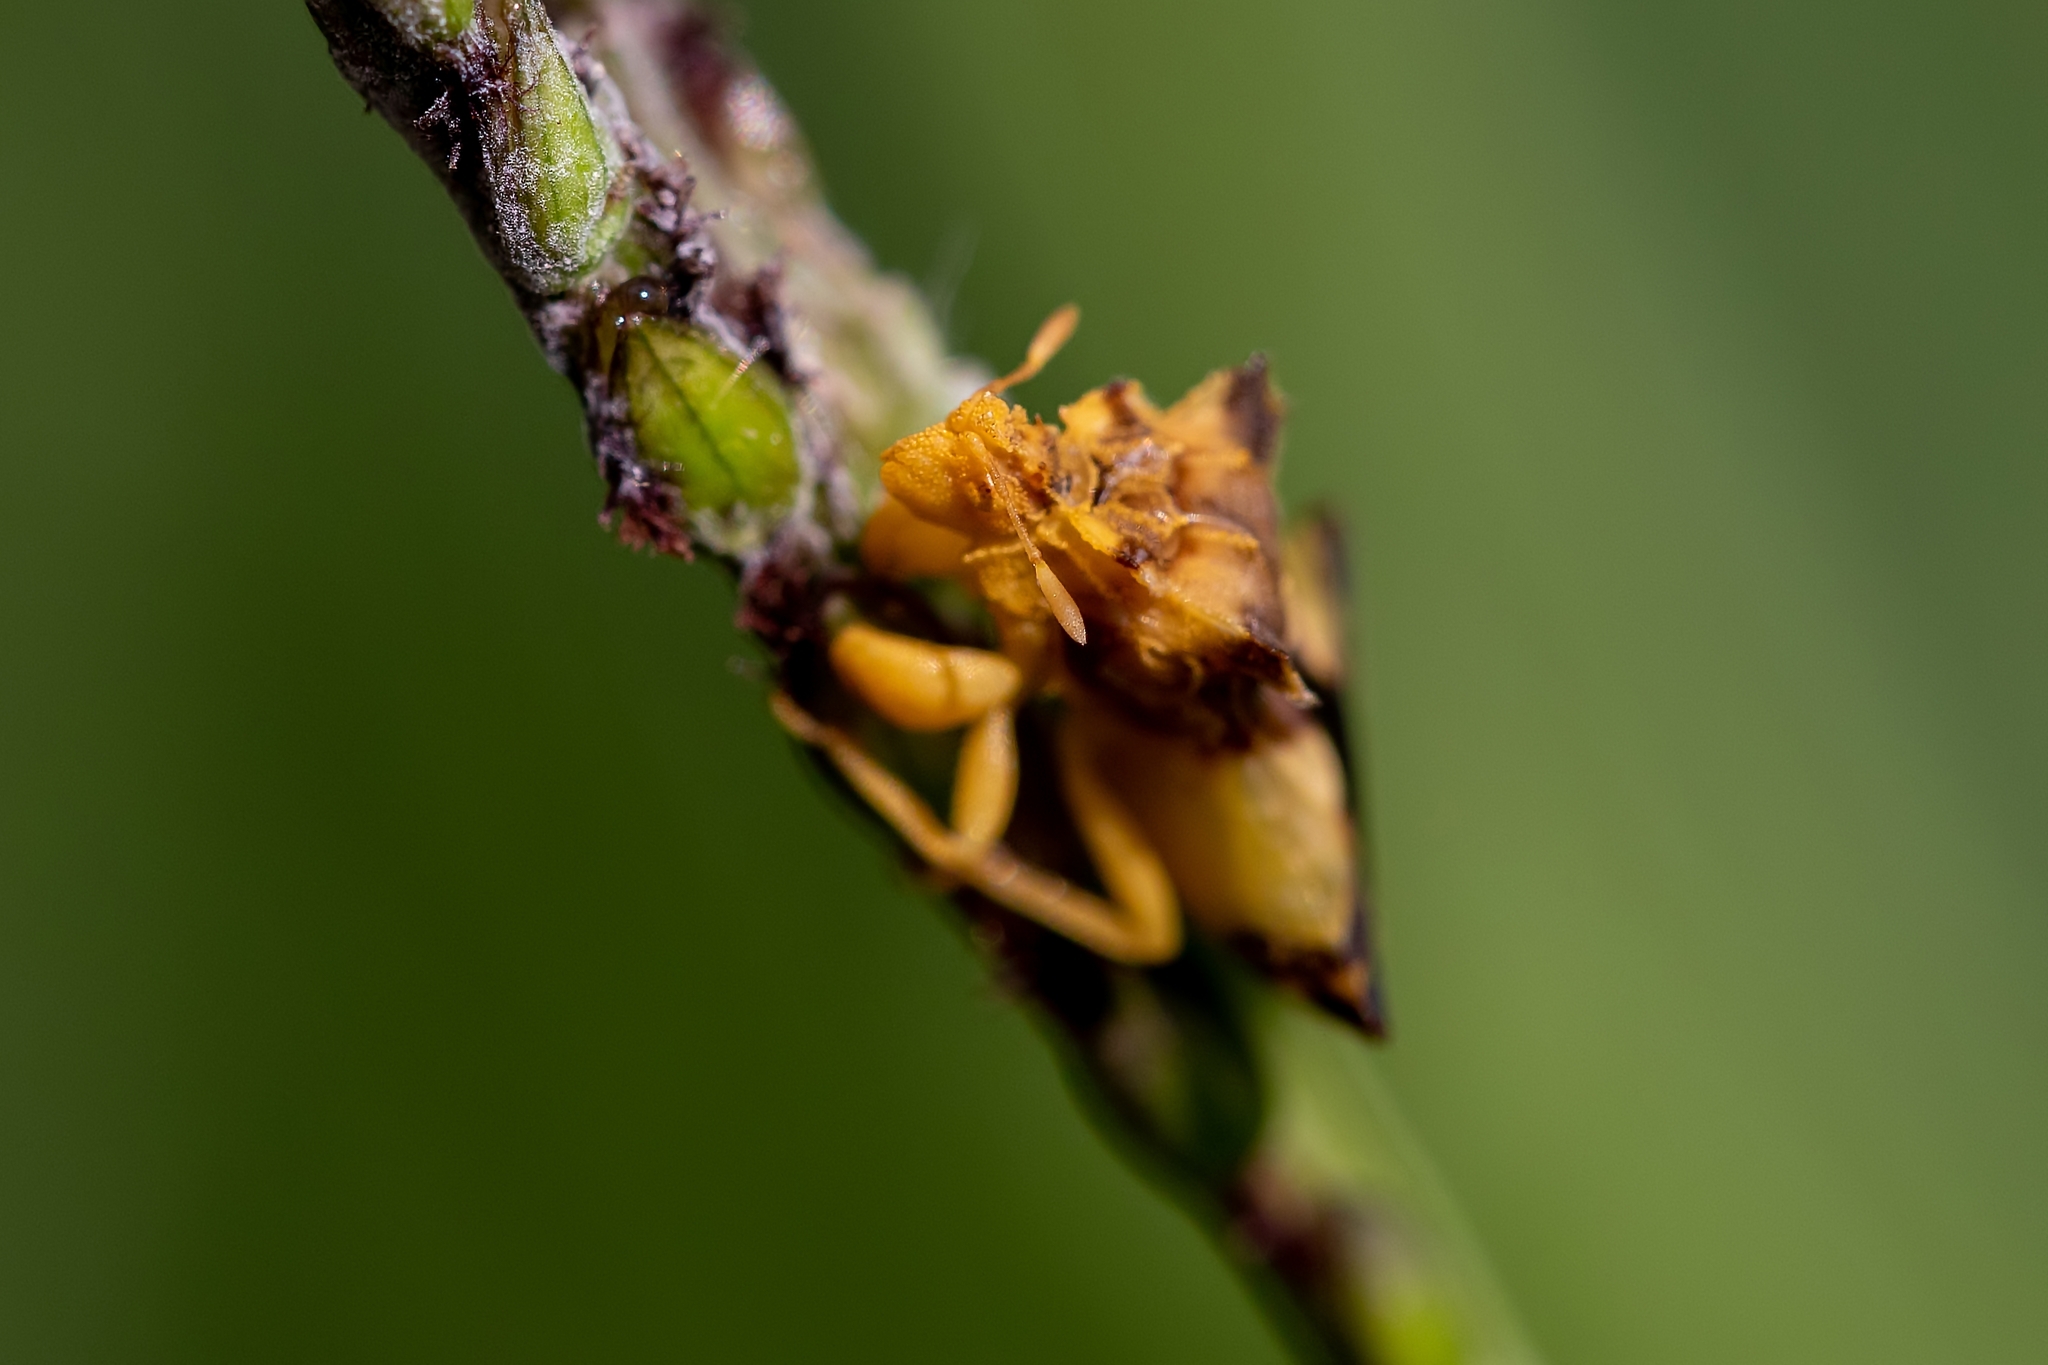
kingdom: Animalia
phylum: Arthropoda
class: Insecta
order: Hemiptera
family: Reduviidae
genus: Phymata
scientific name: Phymata
